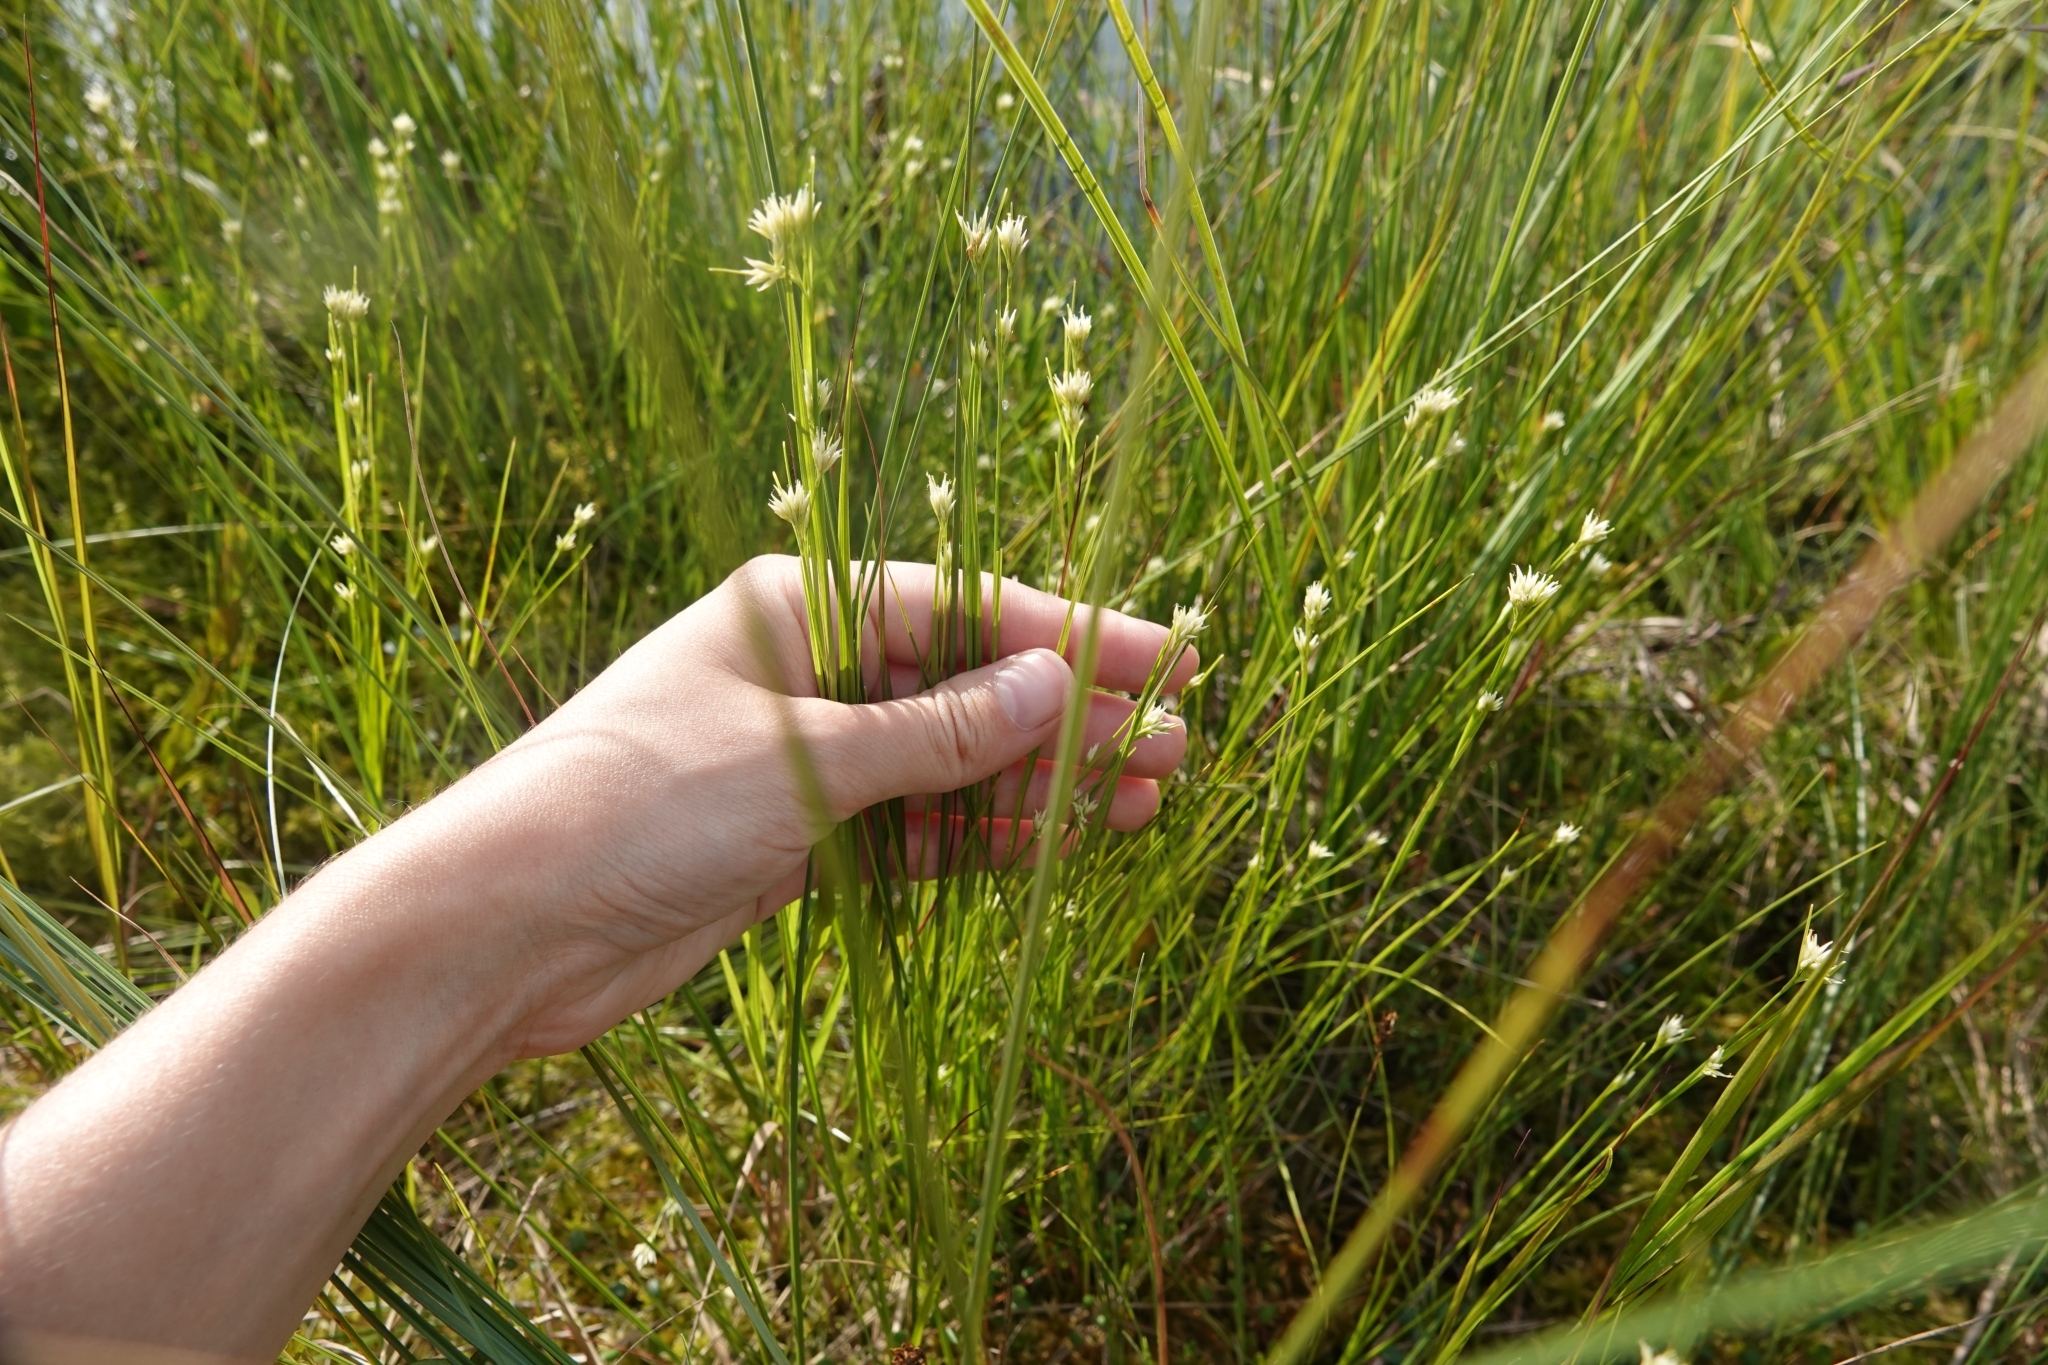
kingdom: Plantae
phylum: Tracheophyta
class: Liliopsida
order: Poales
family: Cyperaceae
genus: Rhynchospora
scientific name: Rhynchospora alba
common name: White beak-sedge
